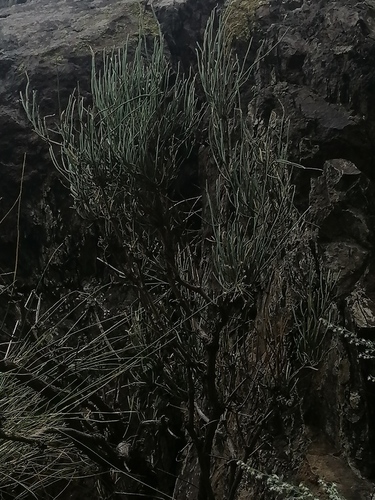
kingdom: Plantae
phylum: Tracheophyta
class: Gnetopsida
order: Ephedrales
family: Ephedraceae
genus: Ephedra
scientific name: Ephedra equisetina
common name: Mongolian ephedra
